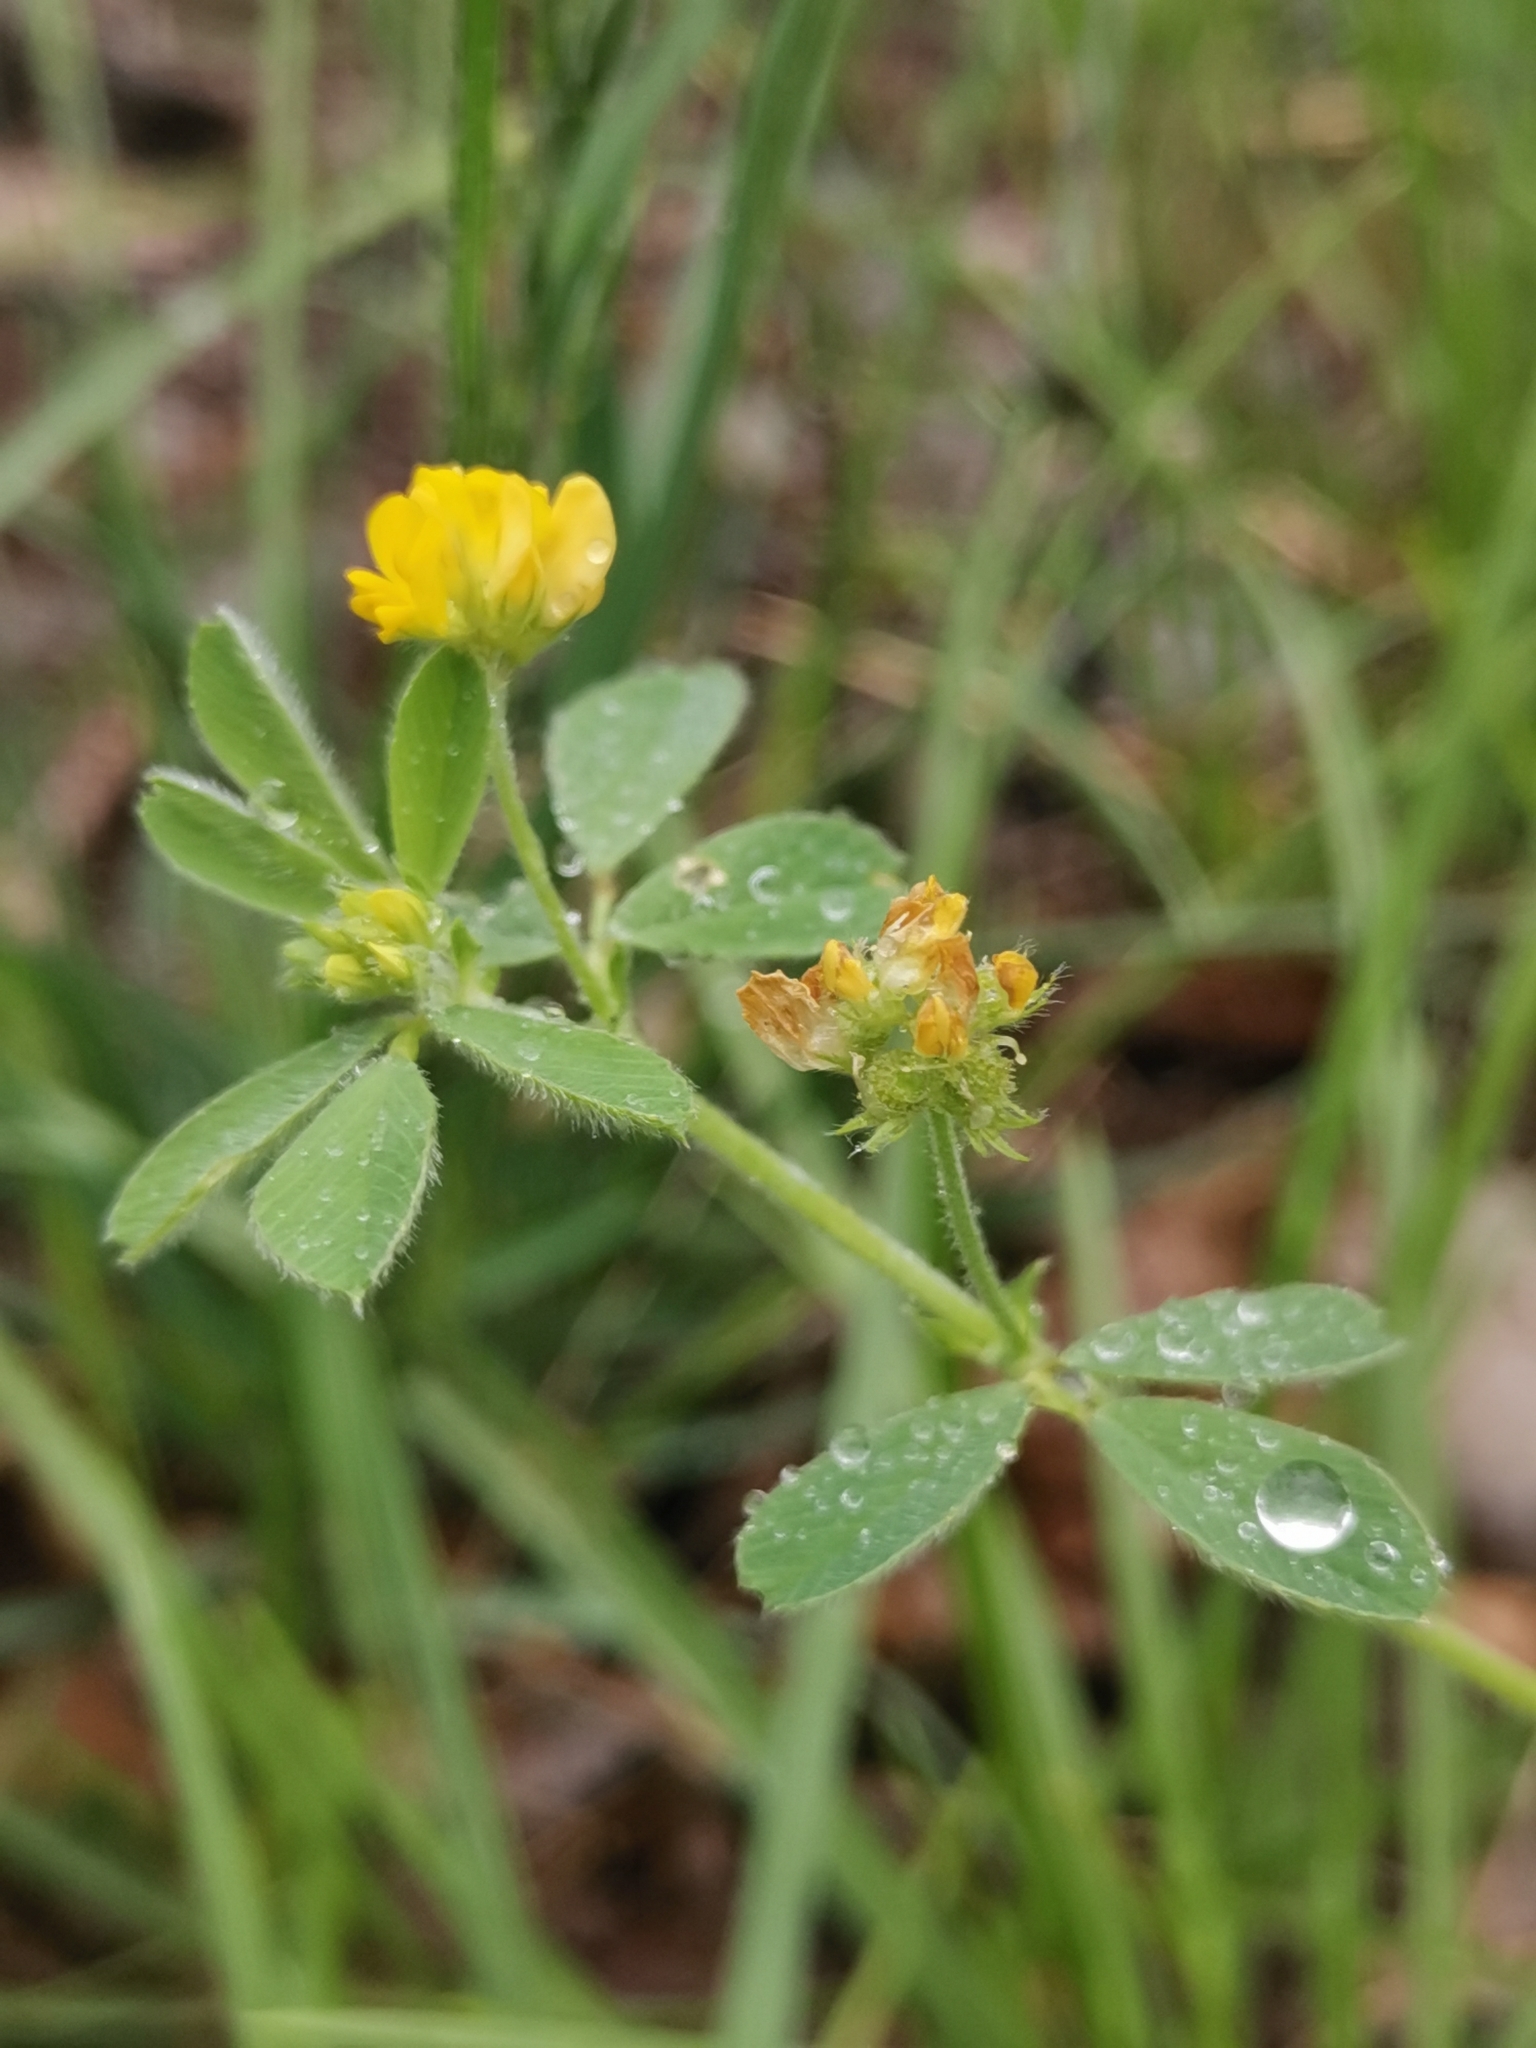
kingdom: Plantae
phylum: Tracheophyta
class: Magnoliopsida
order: Fabales
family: Fabaceae
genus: Medicago
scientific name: Medicago minima
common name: Little bur-clover
